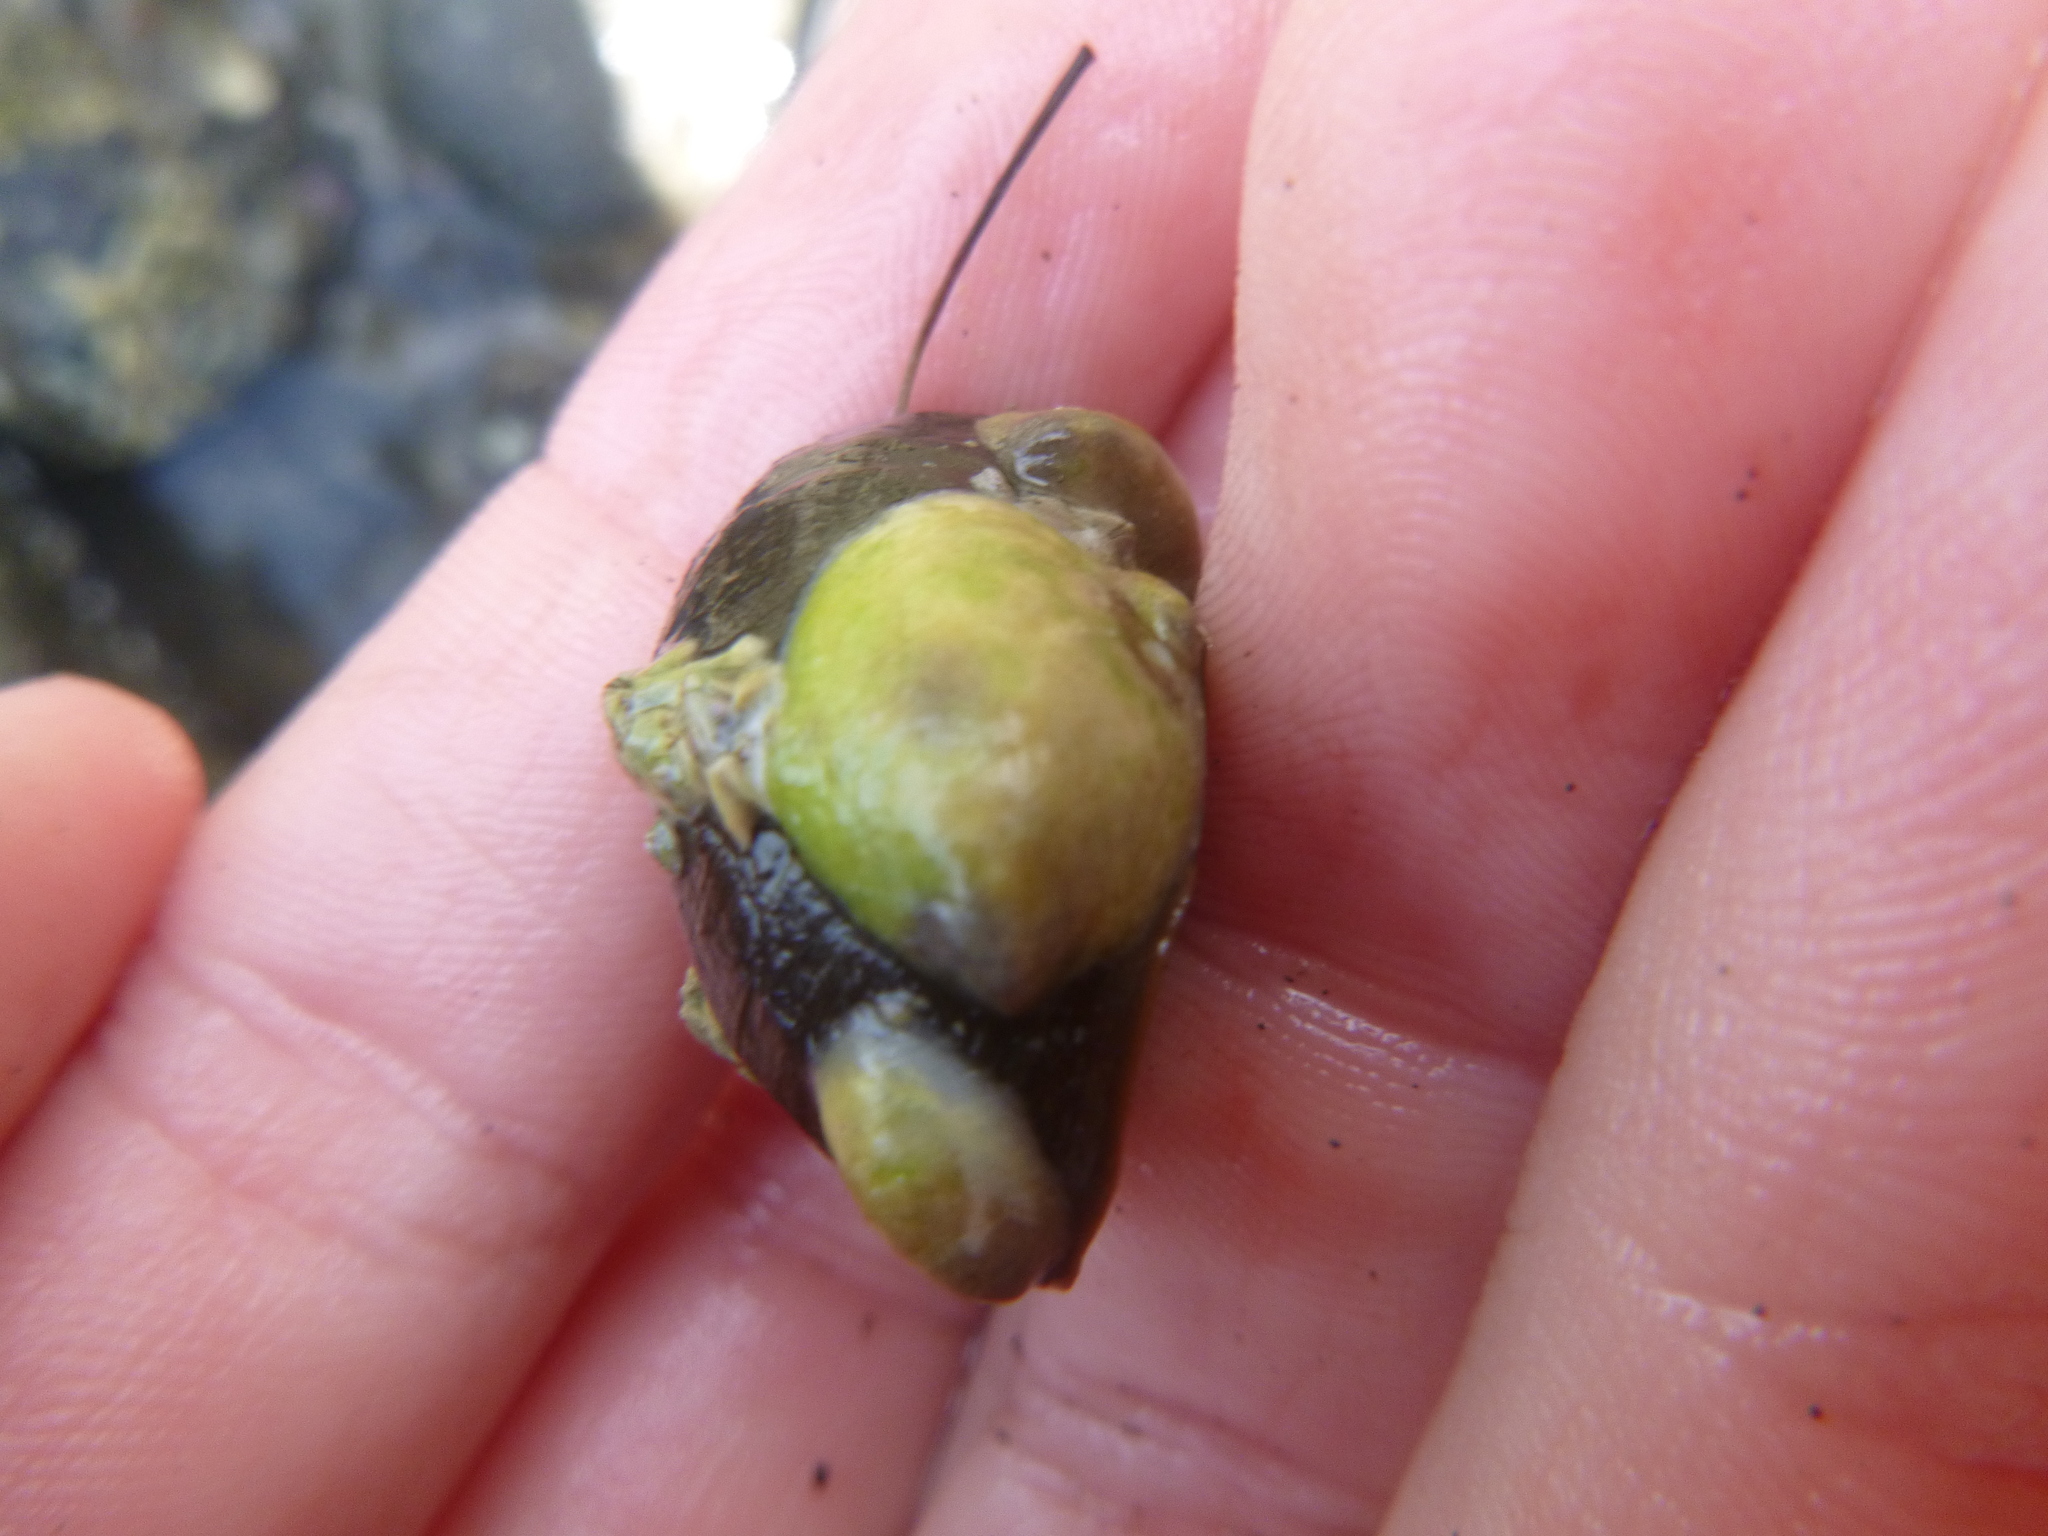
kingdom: Animalia
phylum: Mollusca
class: Gastropoda
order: Littorinimorpha
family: Calyptraeidae
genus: Maoricrypta
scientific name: Maoricrypta monoxyla
